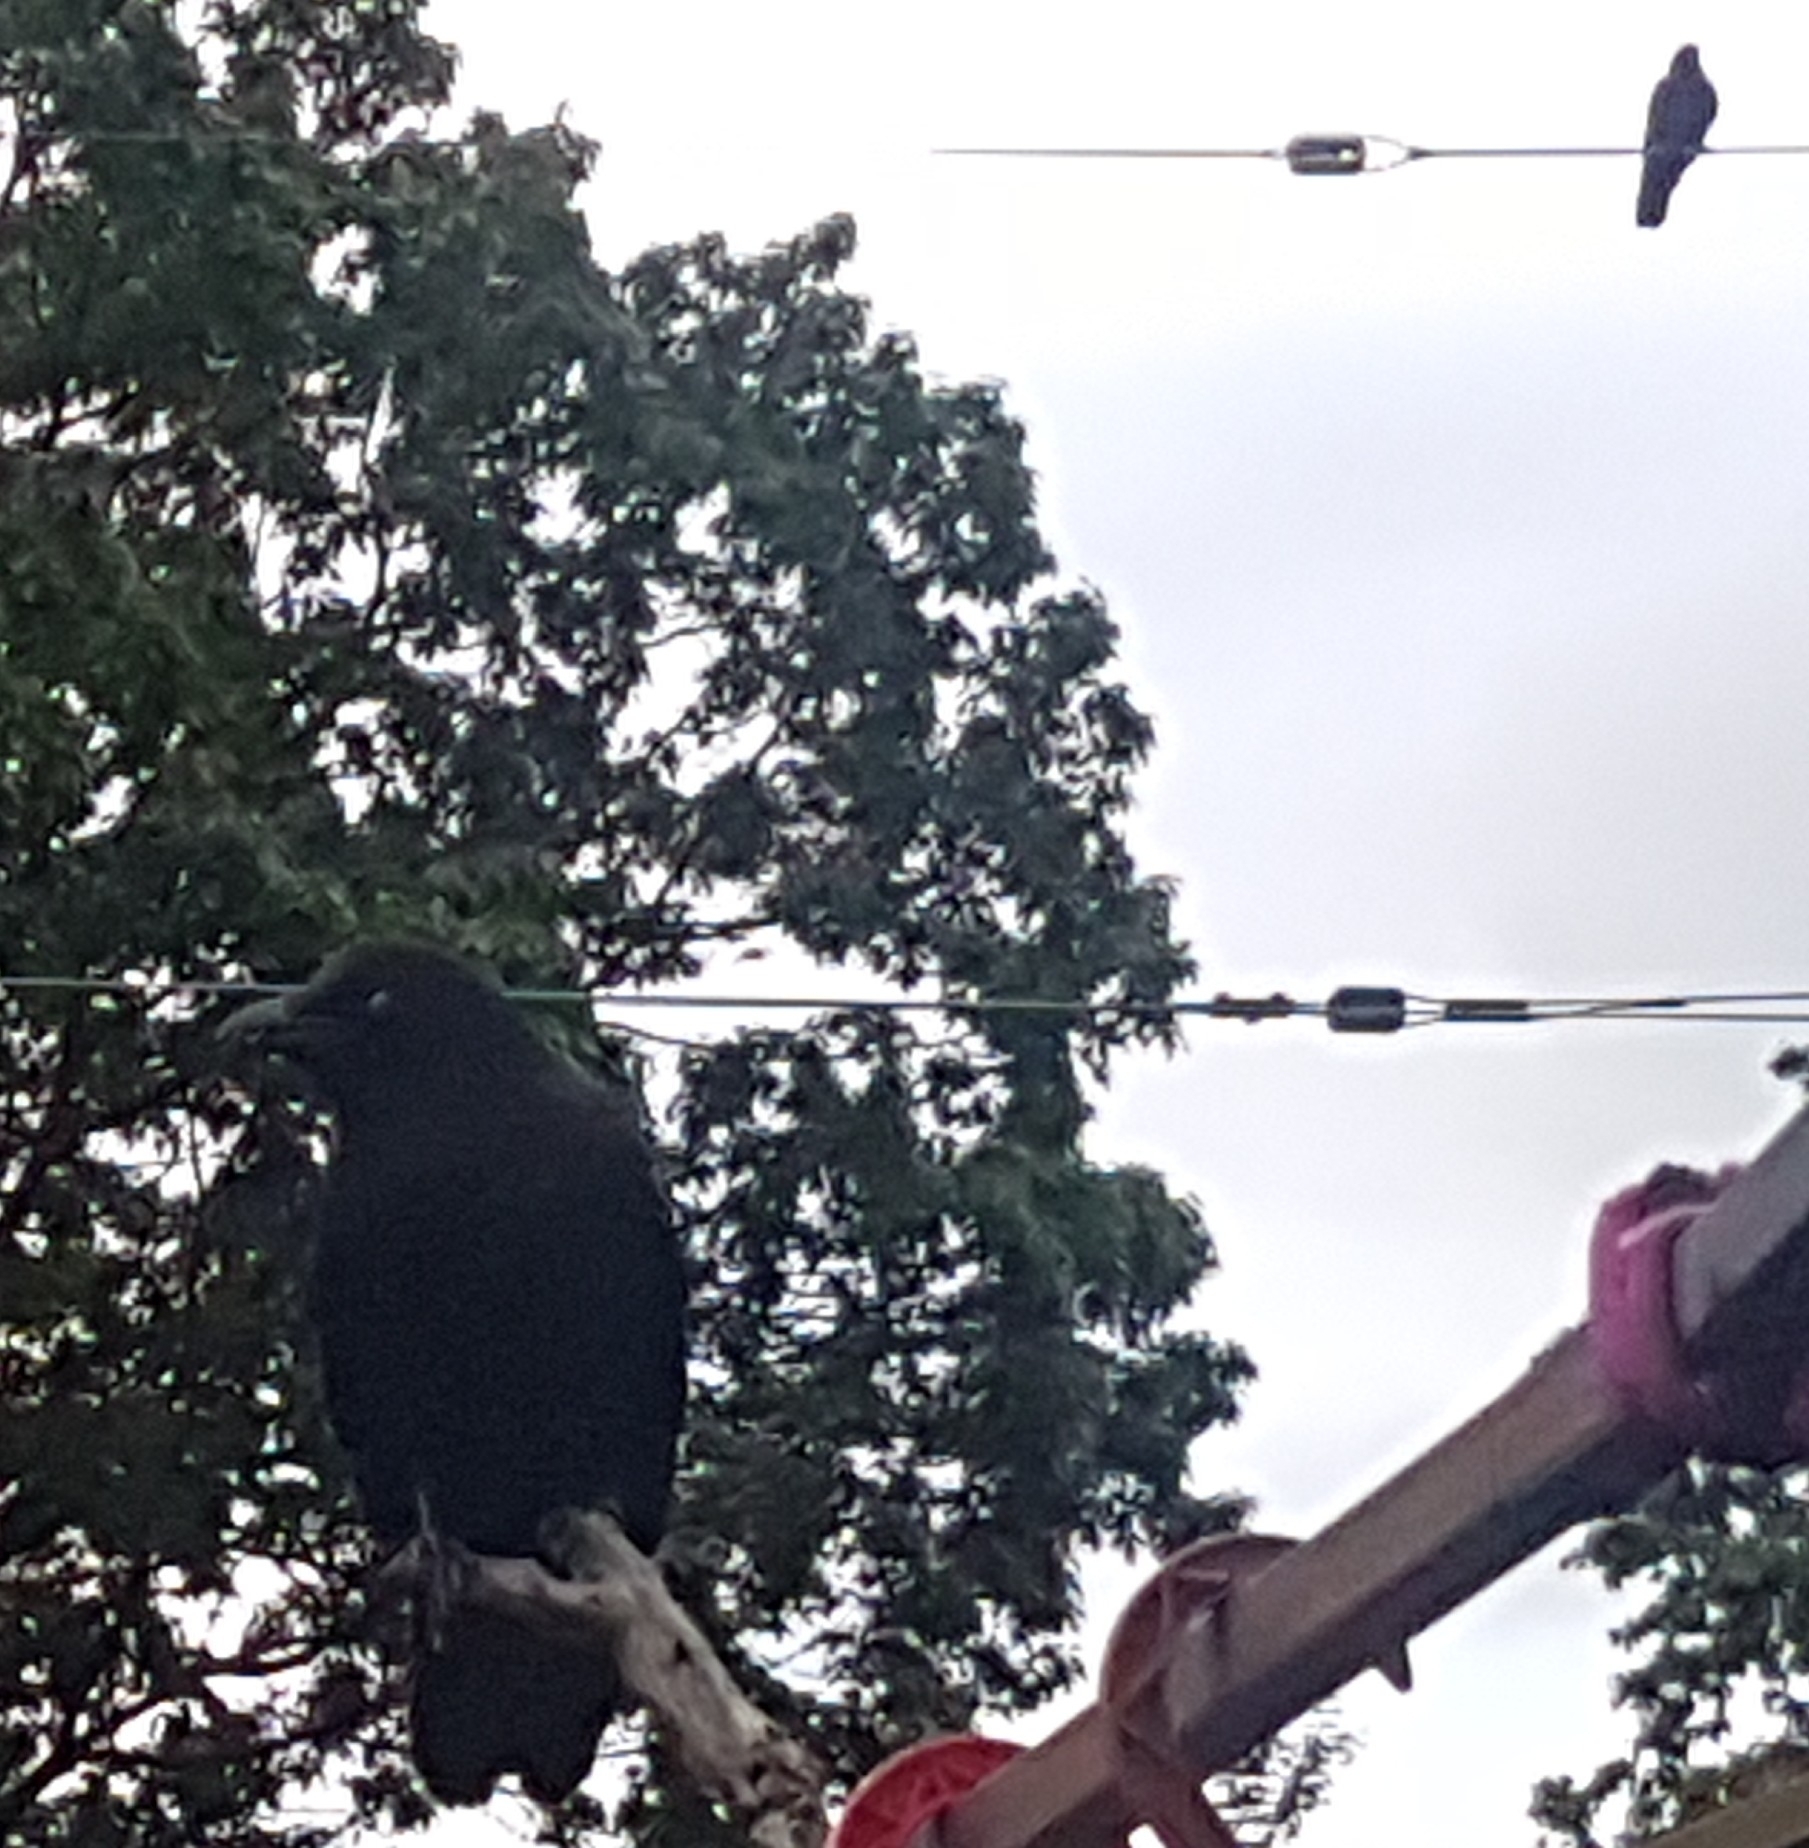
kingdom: Animalia
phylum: Chordata
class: Aves
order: Passeriformes
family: Corvidae
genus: Corvus
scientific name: Corvus brachyrhynchos
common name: American crow
